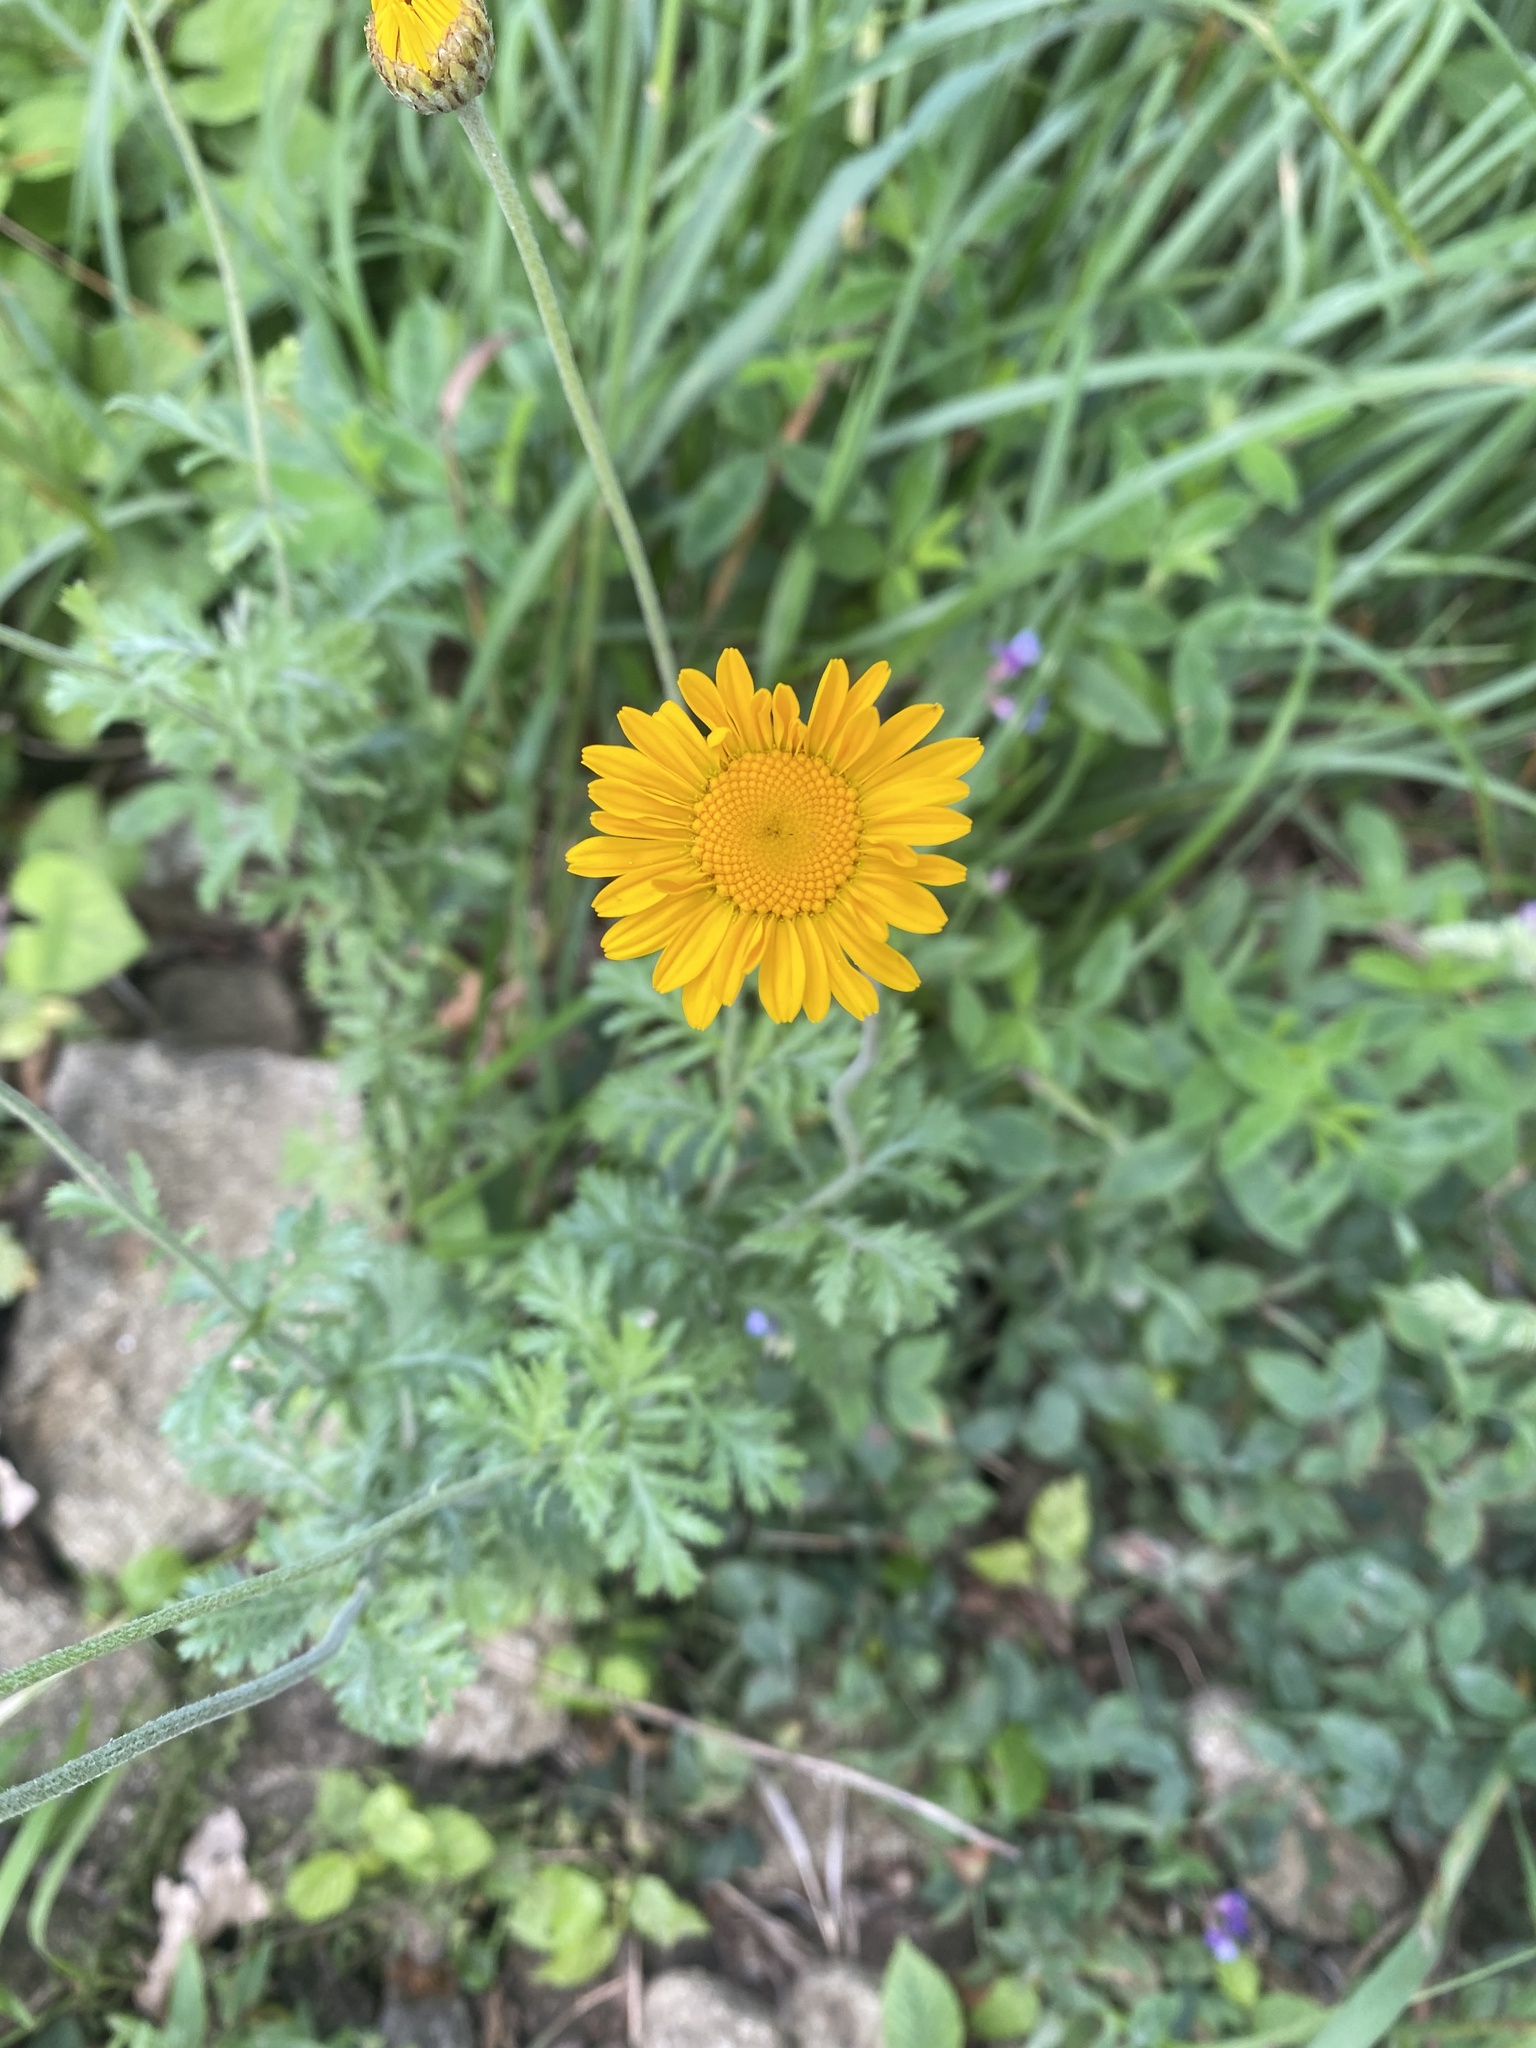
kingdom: Plantae
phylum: Tracheophyta
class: Magnoliopsida
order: Asterales
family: Asteraceae
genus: Cota
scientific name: Cota tinctoria
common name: Golden chamomile
